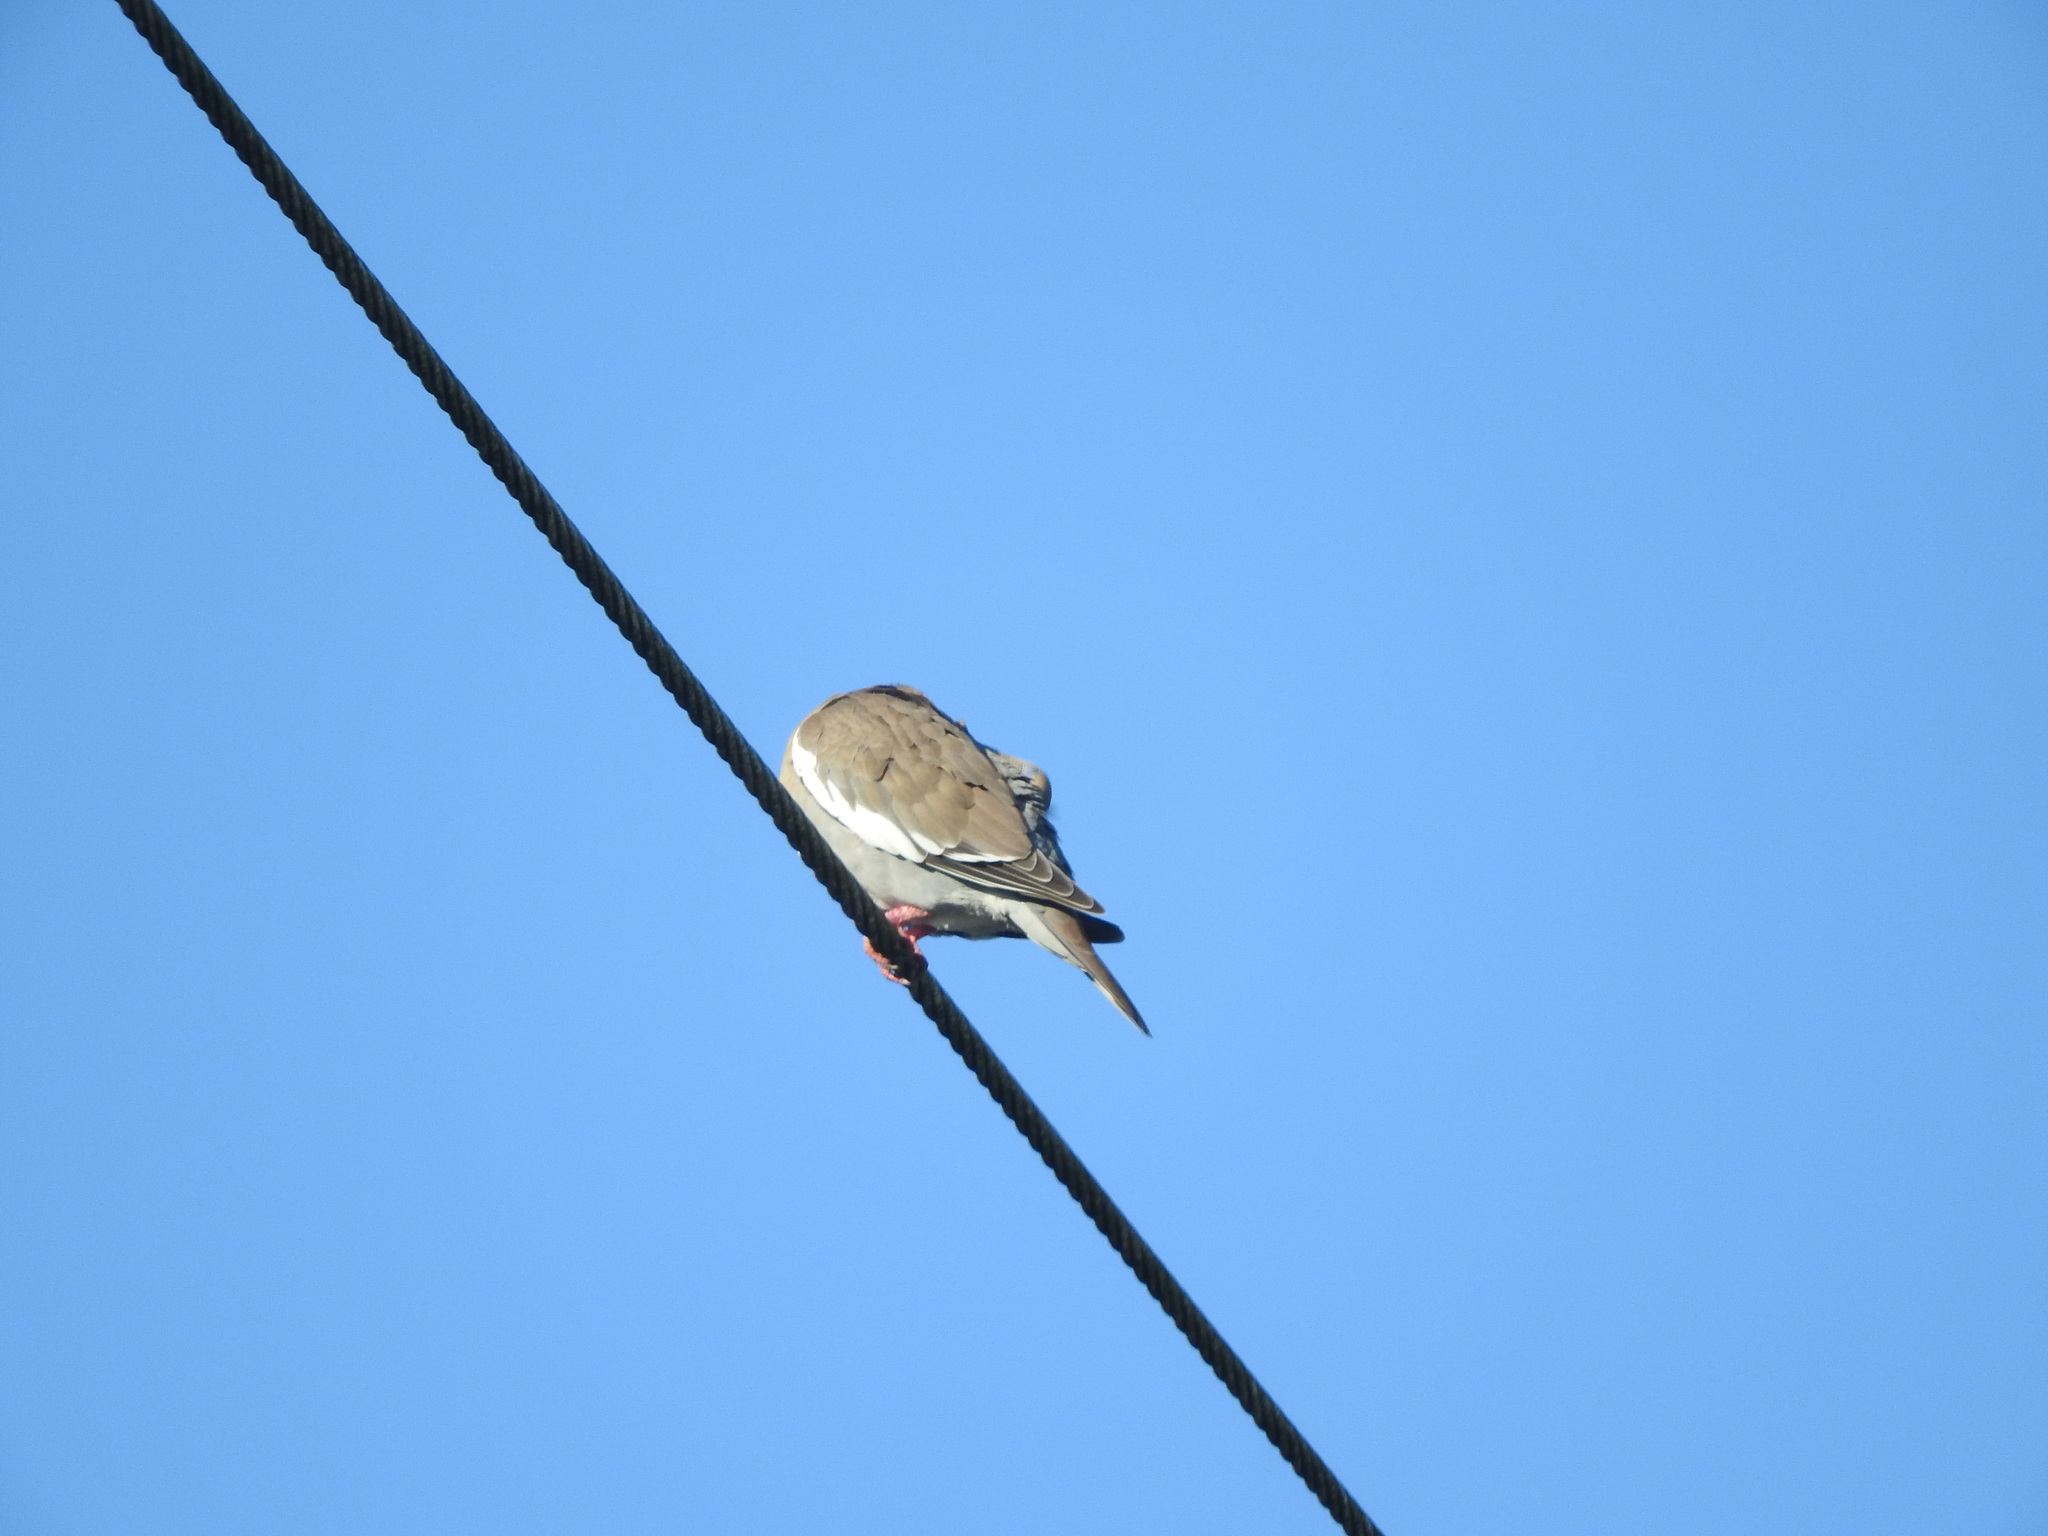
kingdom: Animalia
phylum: Chordata
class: Aves
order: Columbiformes
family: Columbidae
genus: Zenaida
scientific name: Zenaida asiatica
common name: White-winged dove
